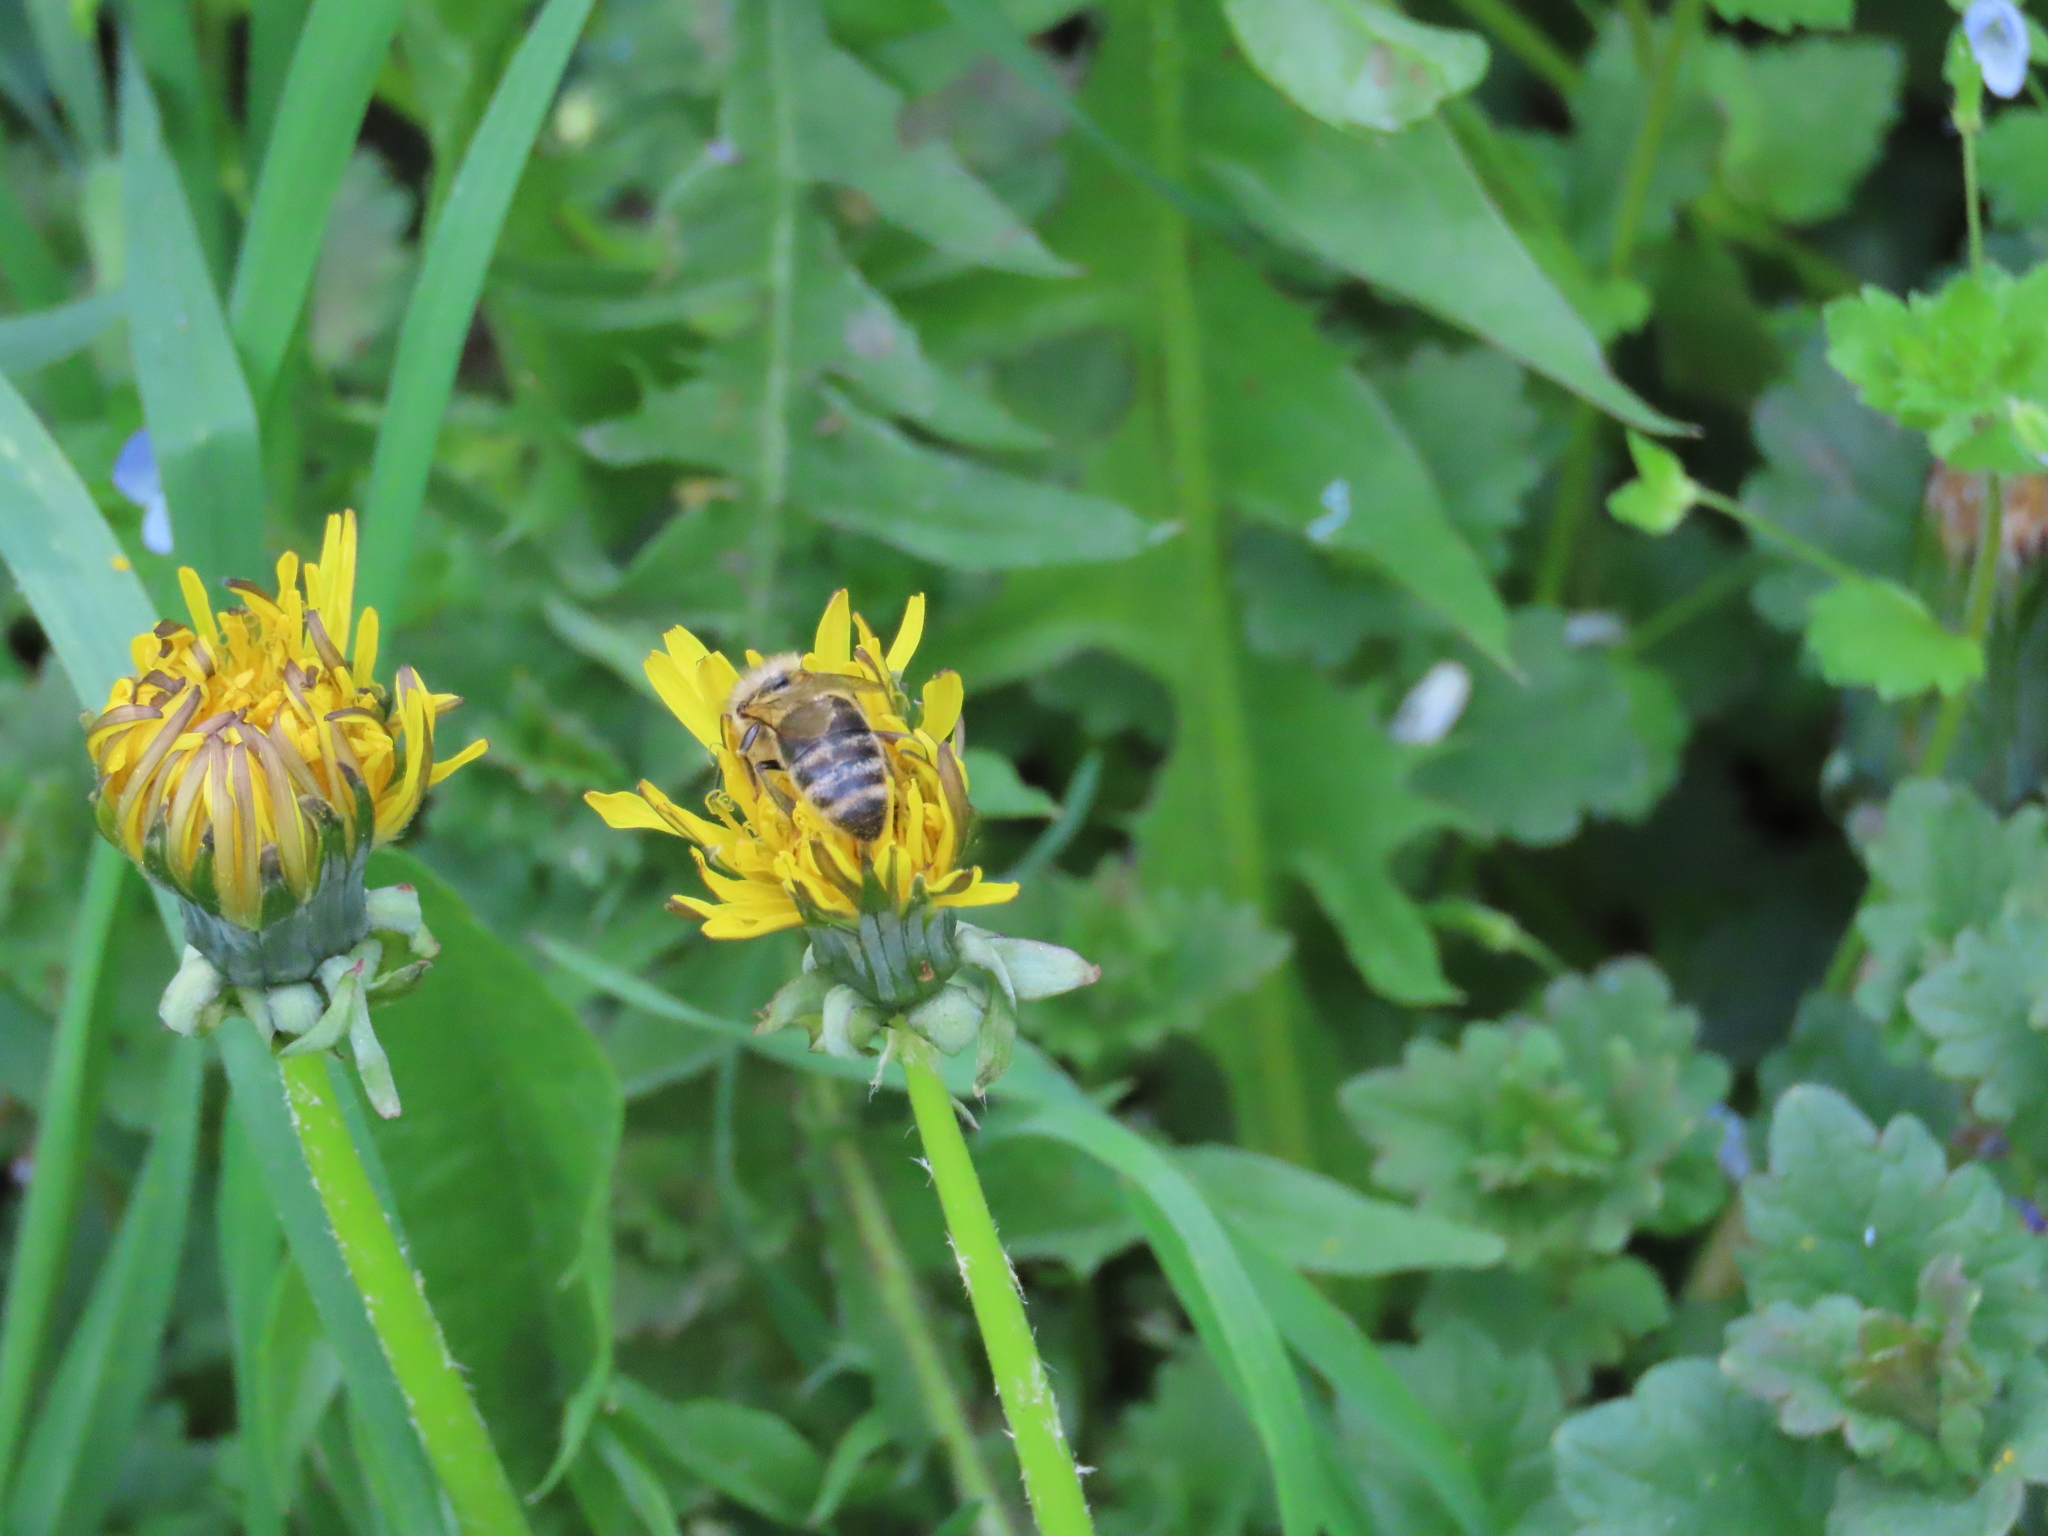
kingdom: Animalia
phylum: Arthropoda
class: Insecta
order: Hymenoptera
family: Apidae
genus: Apis
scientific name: Apis mellifera
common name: Honey bee
